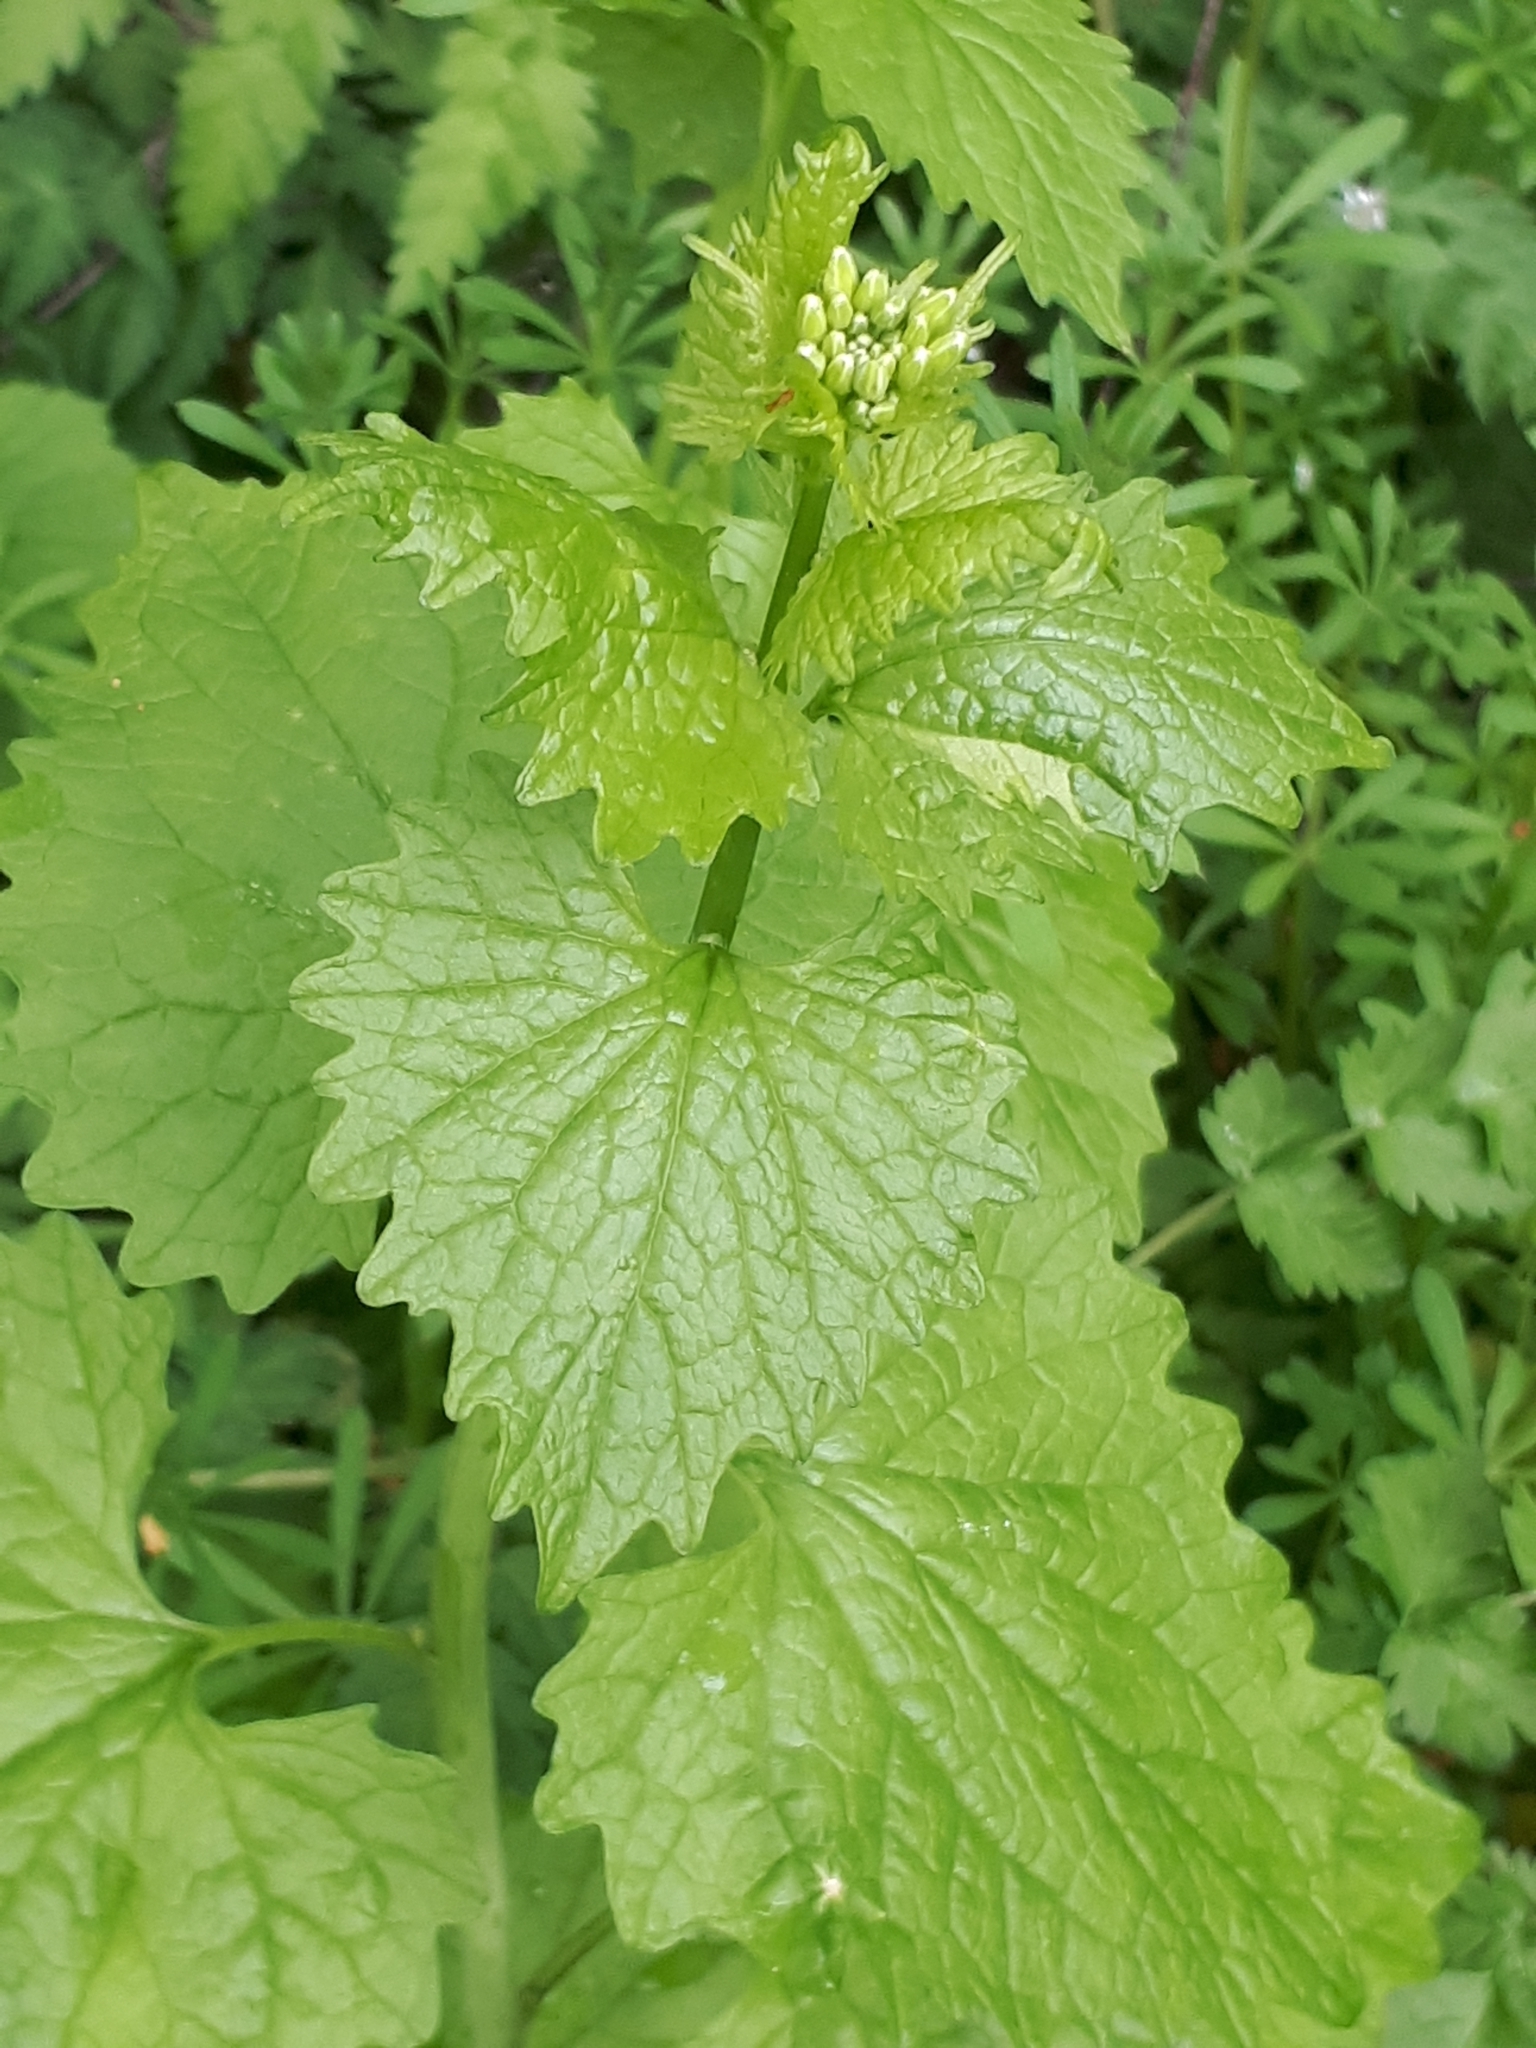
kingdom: Plantae
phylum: Tracheophyta
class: Magnoliopsida
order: Brassicales
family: Brassicaceae
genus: Alliaria
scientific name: Alliaria petiolata
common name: Garlic mustard
